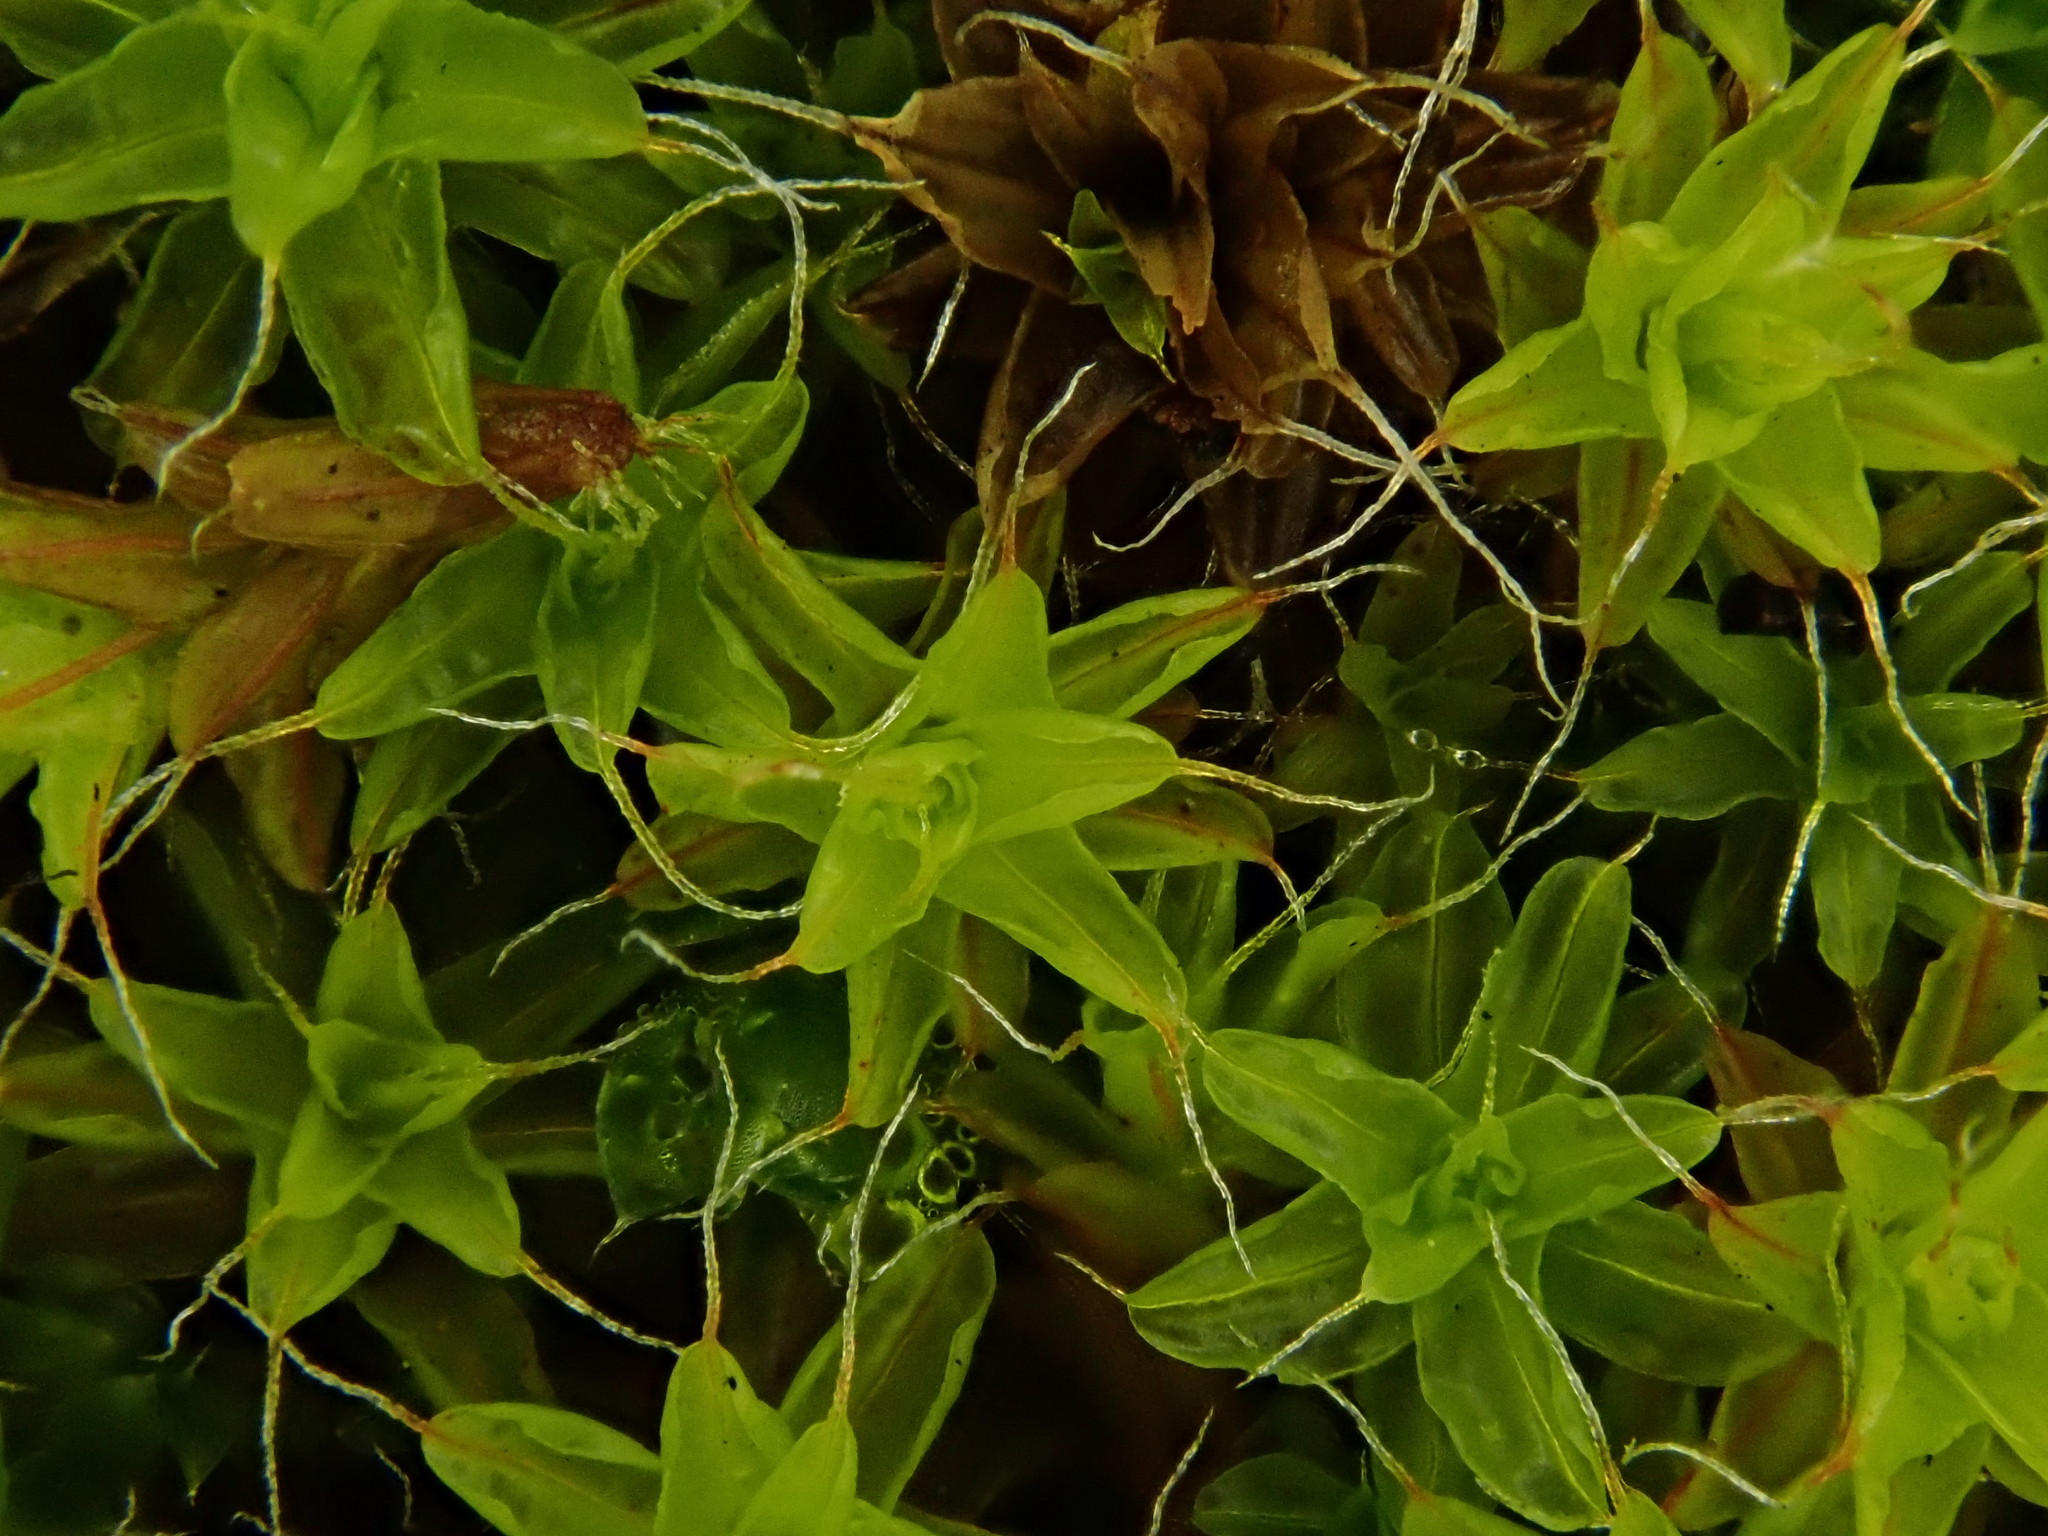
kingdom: Plantae
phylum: Bryophyta
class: Bryopsida
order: Pottiales
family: Pottiaceae
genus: Syntrichia
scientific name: Syntrichia ruralis
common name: Sidewalk screw moss
